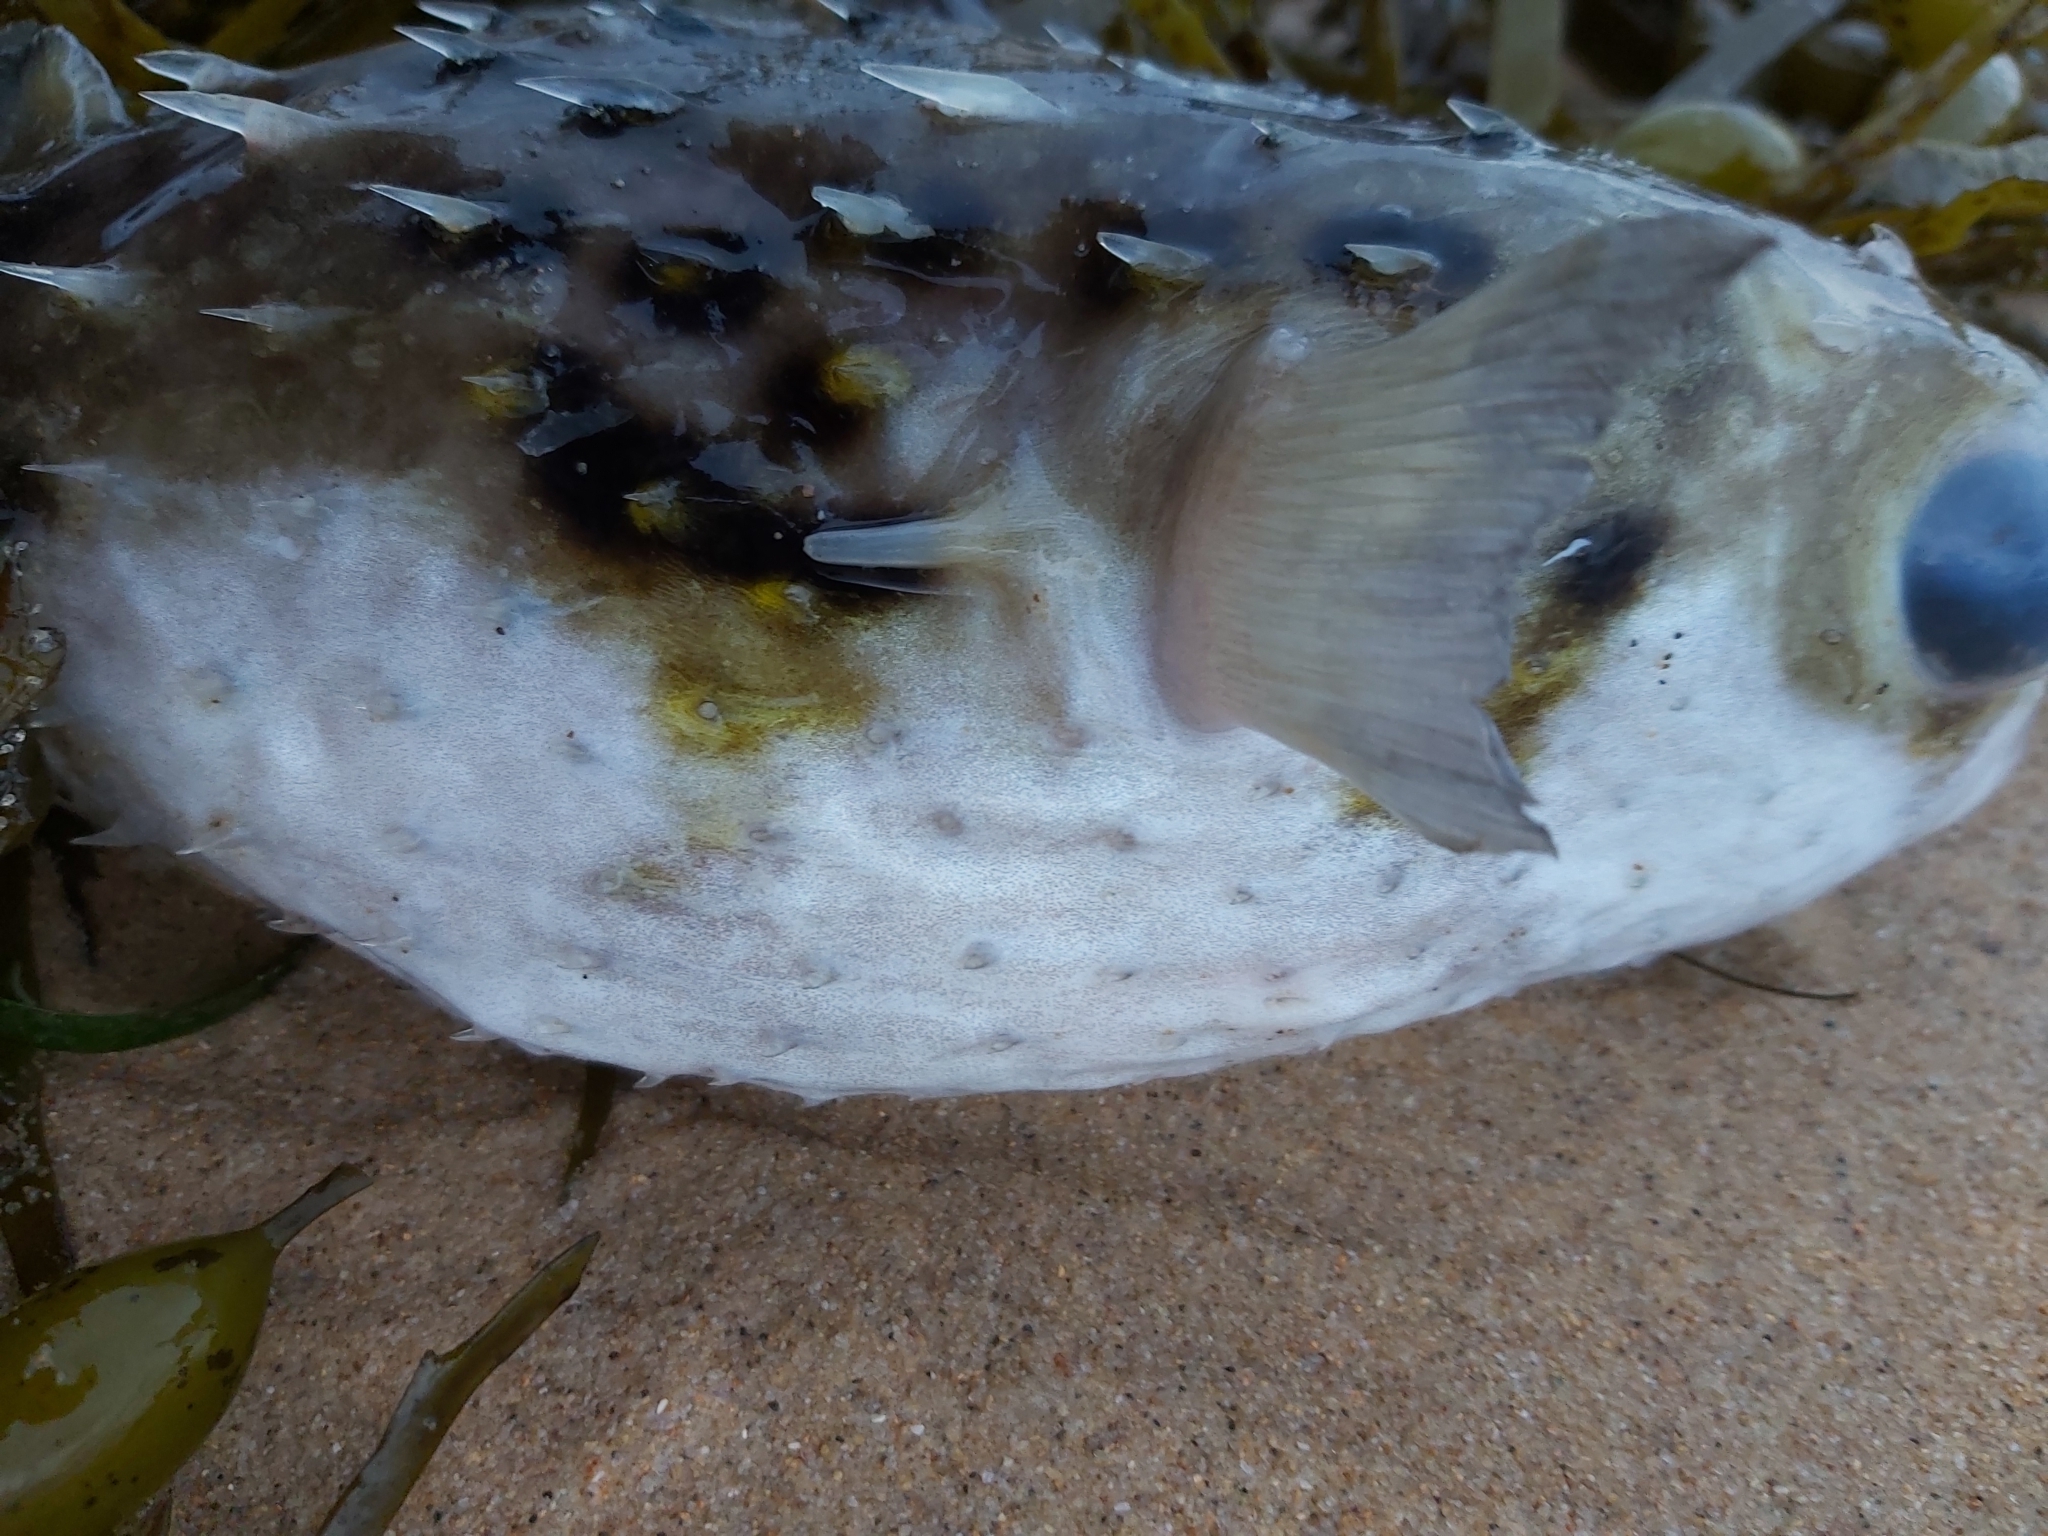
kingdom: Animalia
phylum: Chordata
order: Tetraodontiformes
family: Diodontidae
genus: Allomycterus
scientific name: Allomycterus pilatus
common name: No common name
